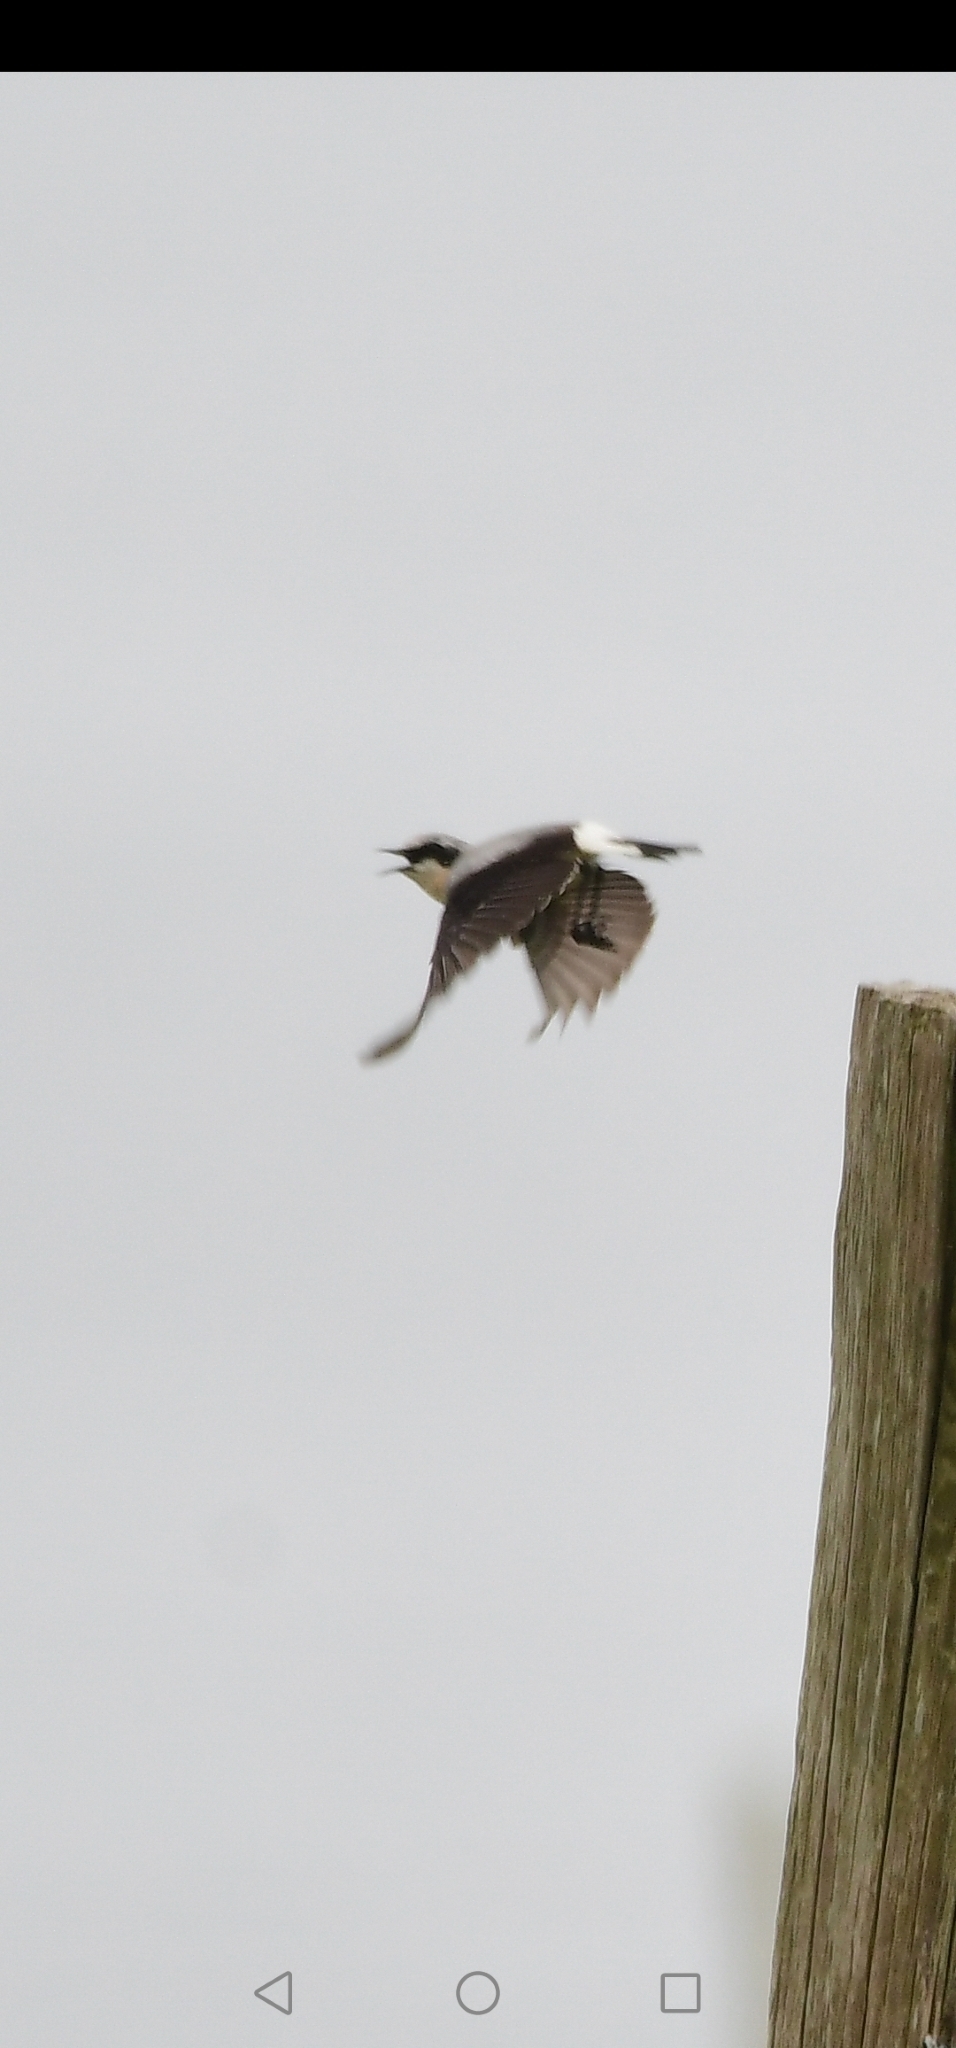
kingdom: Animalia
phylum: Chordata
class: Aves
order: Passeriformes
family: Muscicapidae
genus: Oenanthe
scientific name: Oenanthe oenanthe
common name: Northern wheatear
